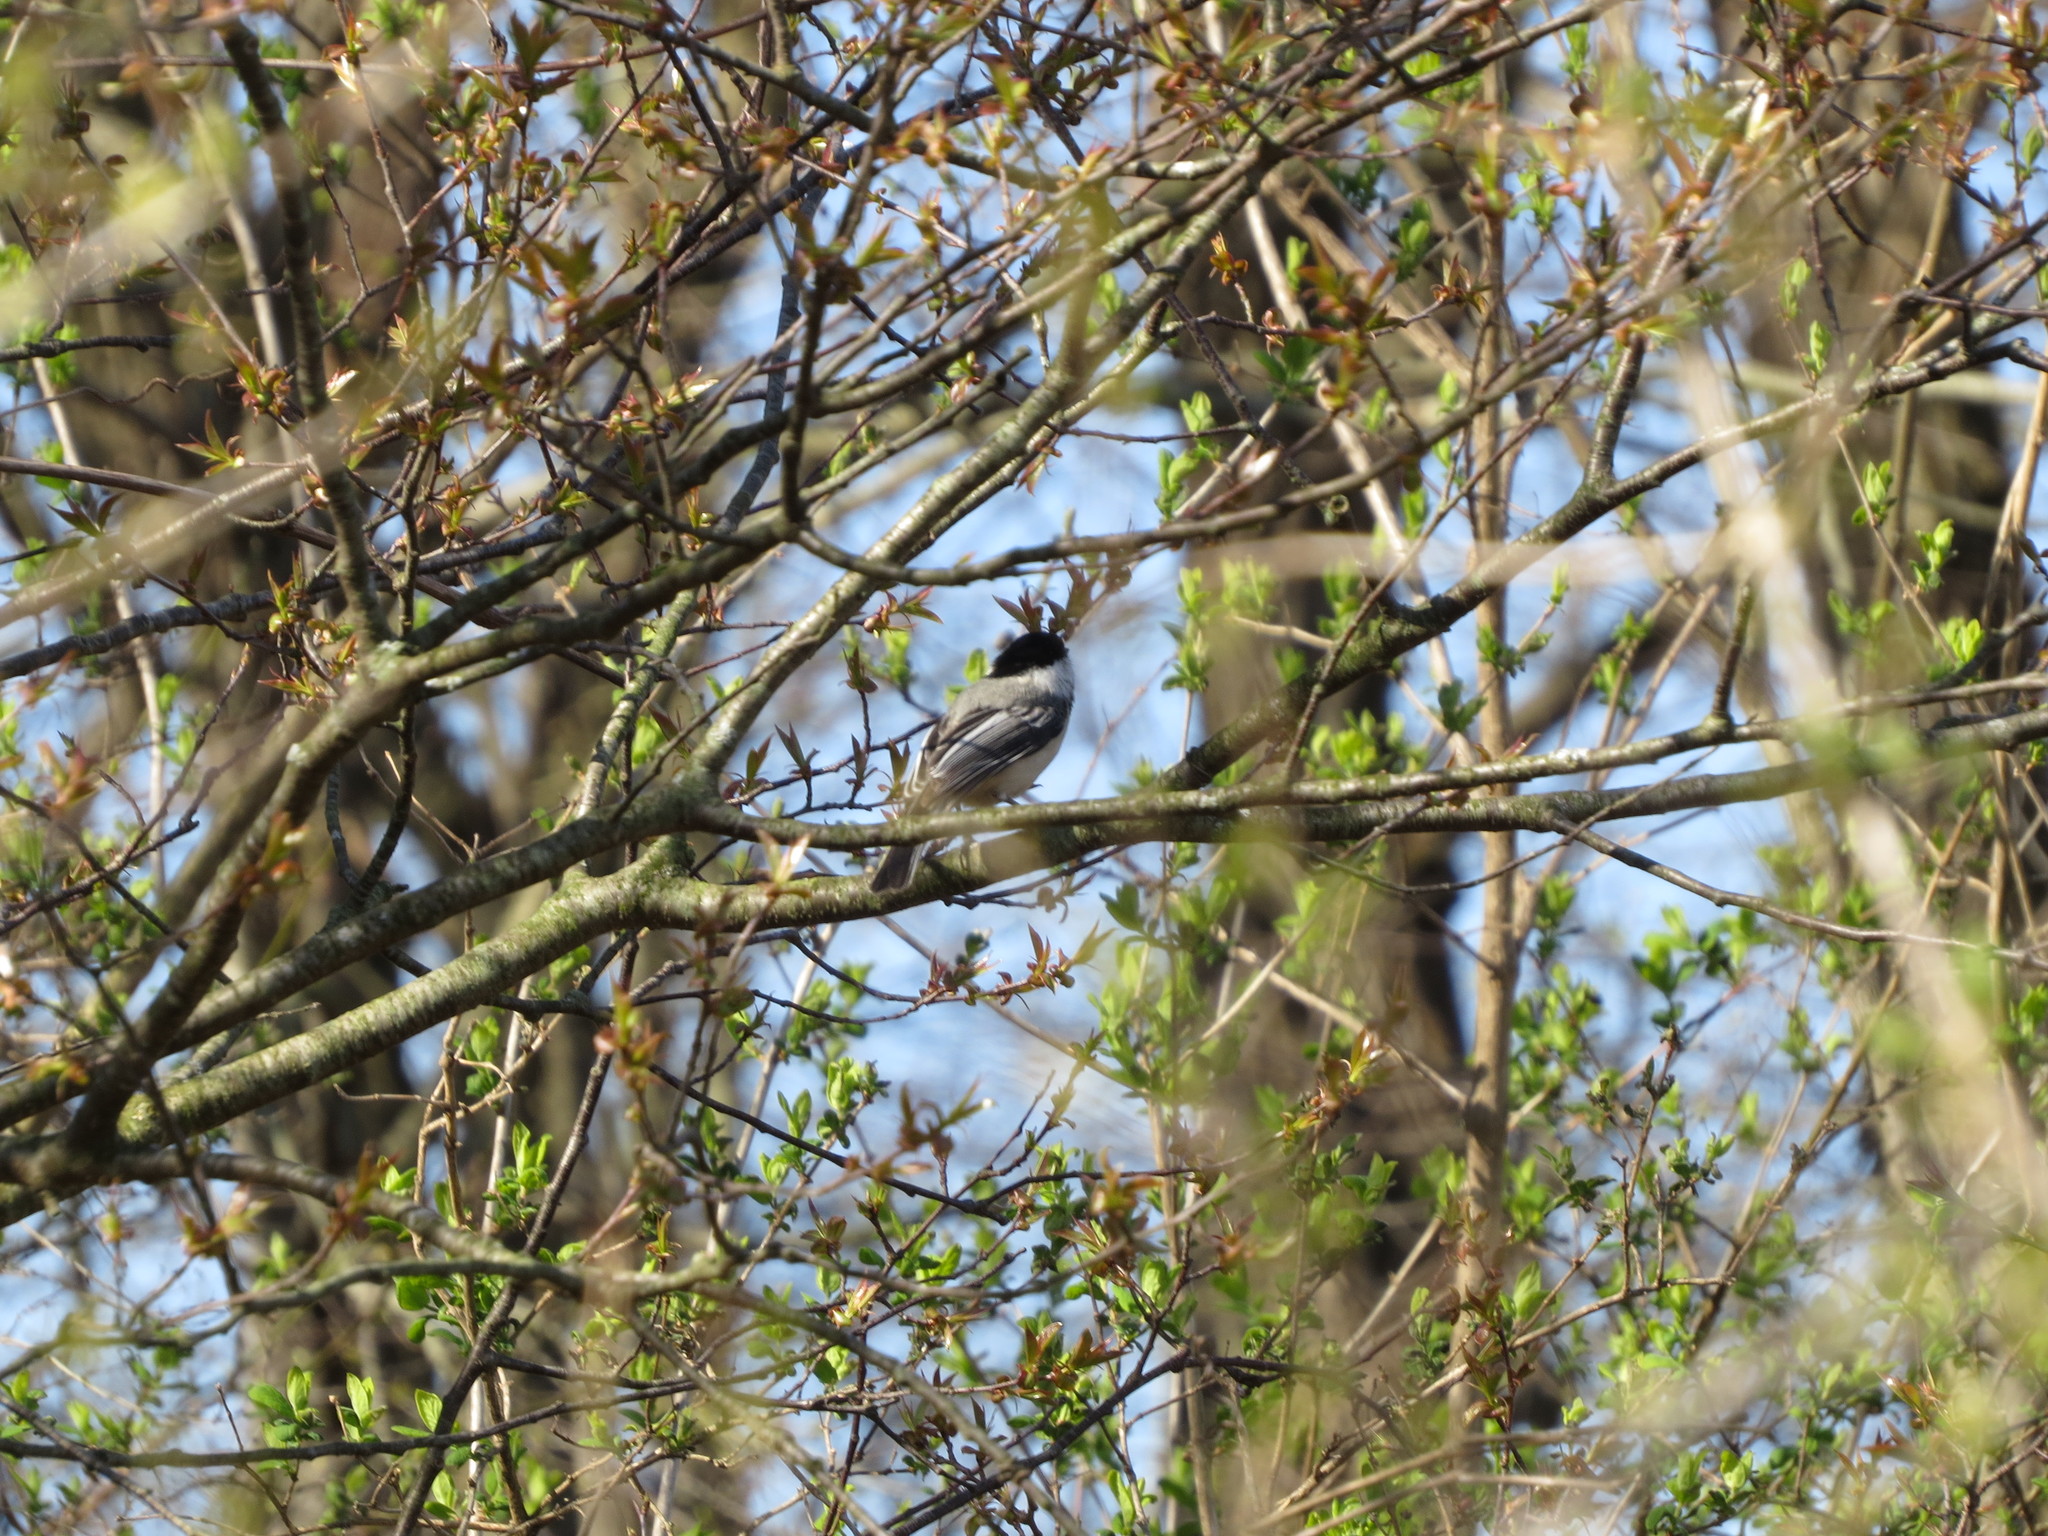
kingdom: Animalia
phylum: Chordata
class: Aves
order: Passeriformes
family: Paridae
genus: Poecile
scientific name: Poecile atricapillus
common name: Black-capped chickadee
